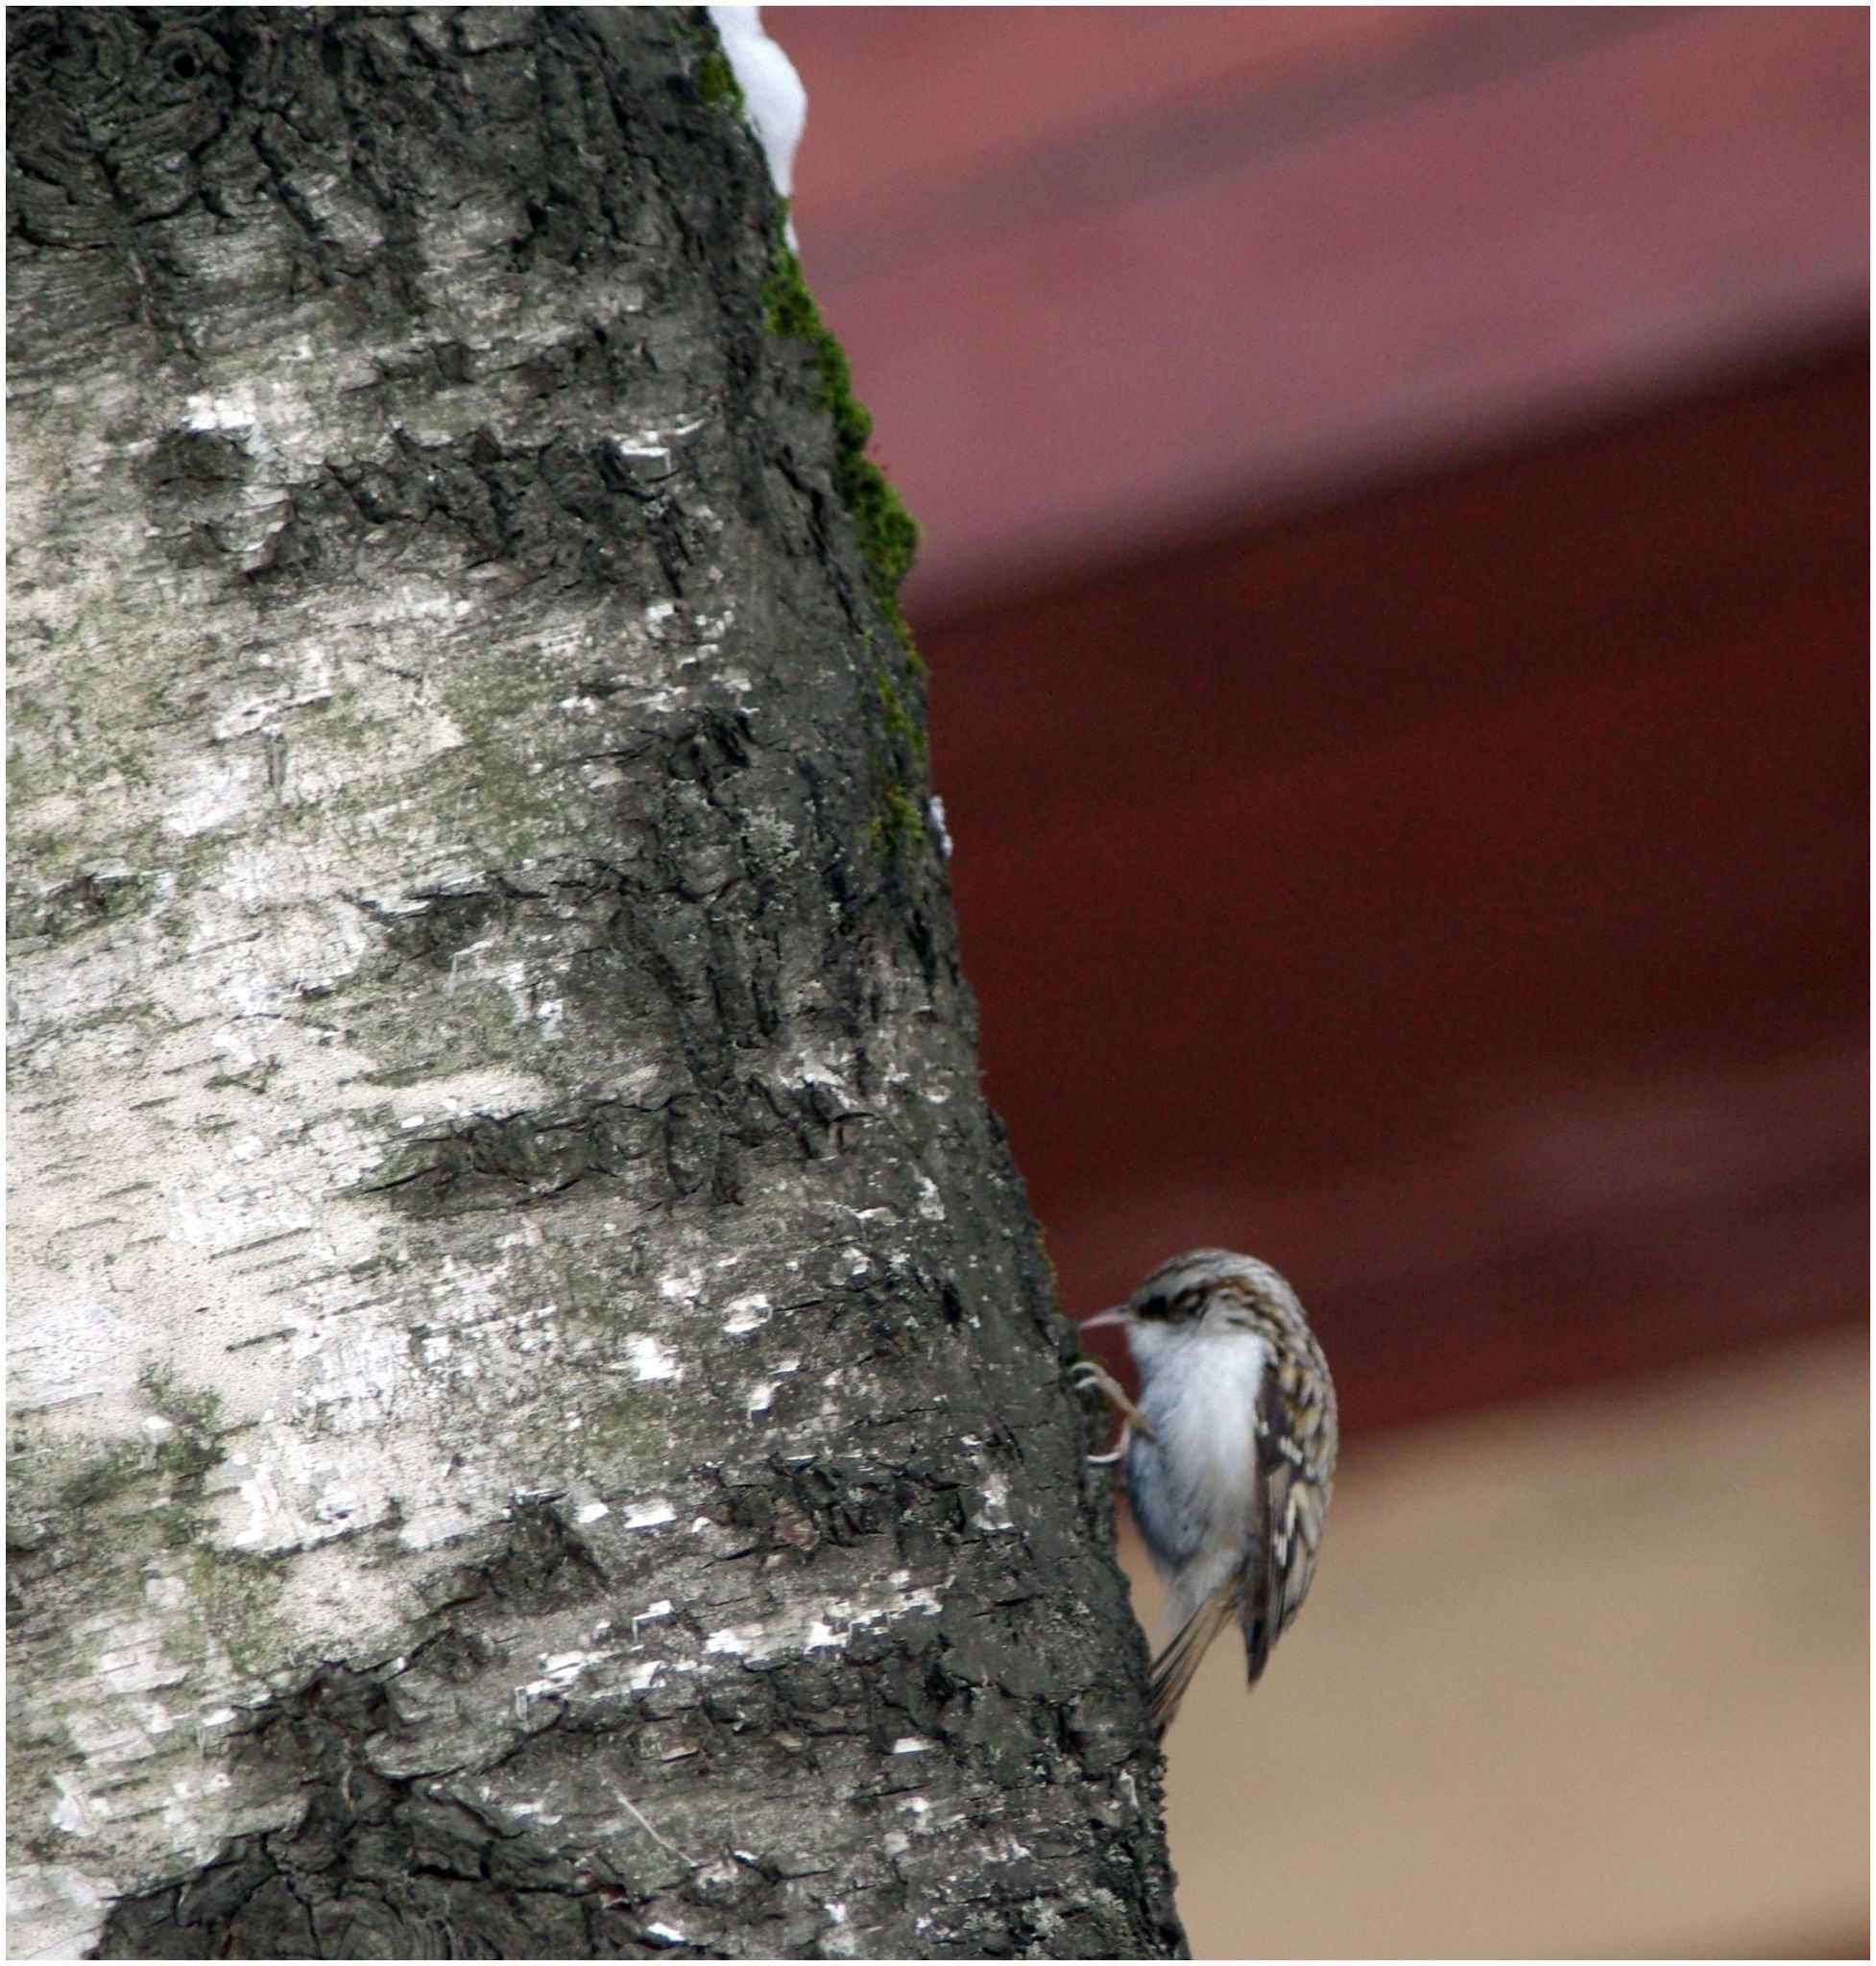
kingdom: Animalia
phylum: Chordata
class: Aves
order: Passeriformes
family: Certhiidae
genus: Certhia
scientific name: Certhia familiaris
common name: Eurasian treecreeper
